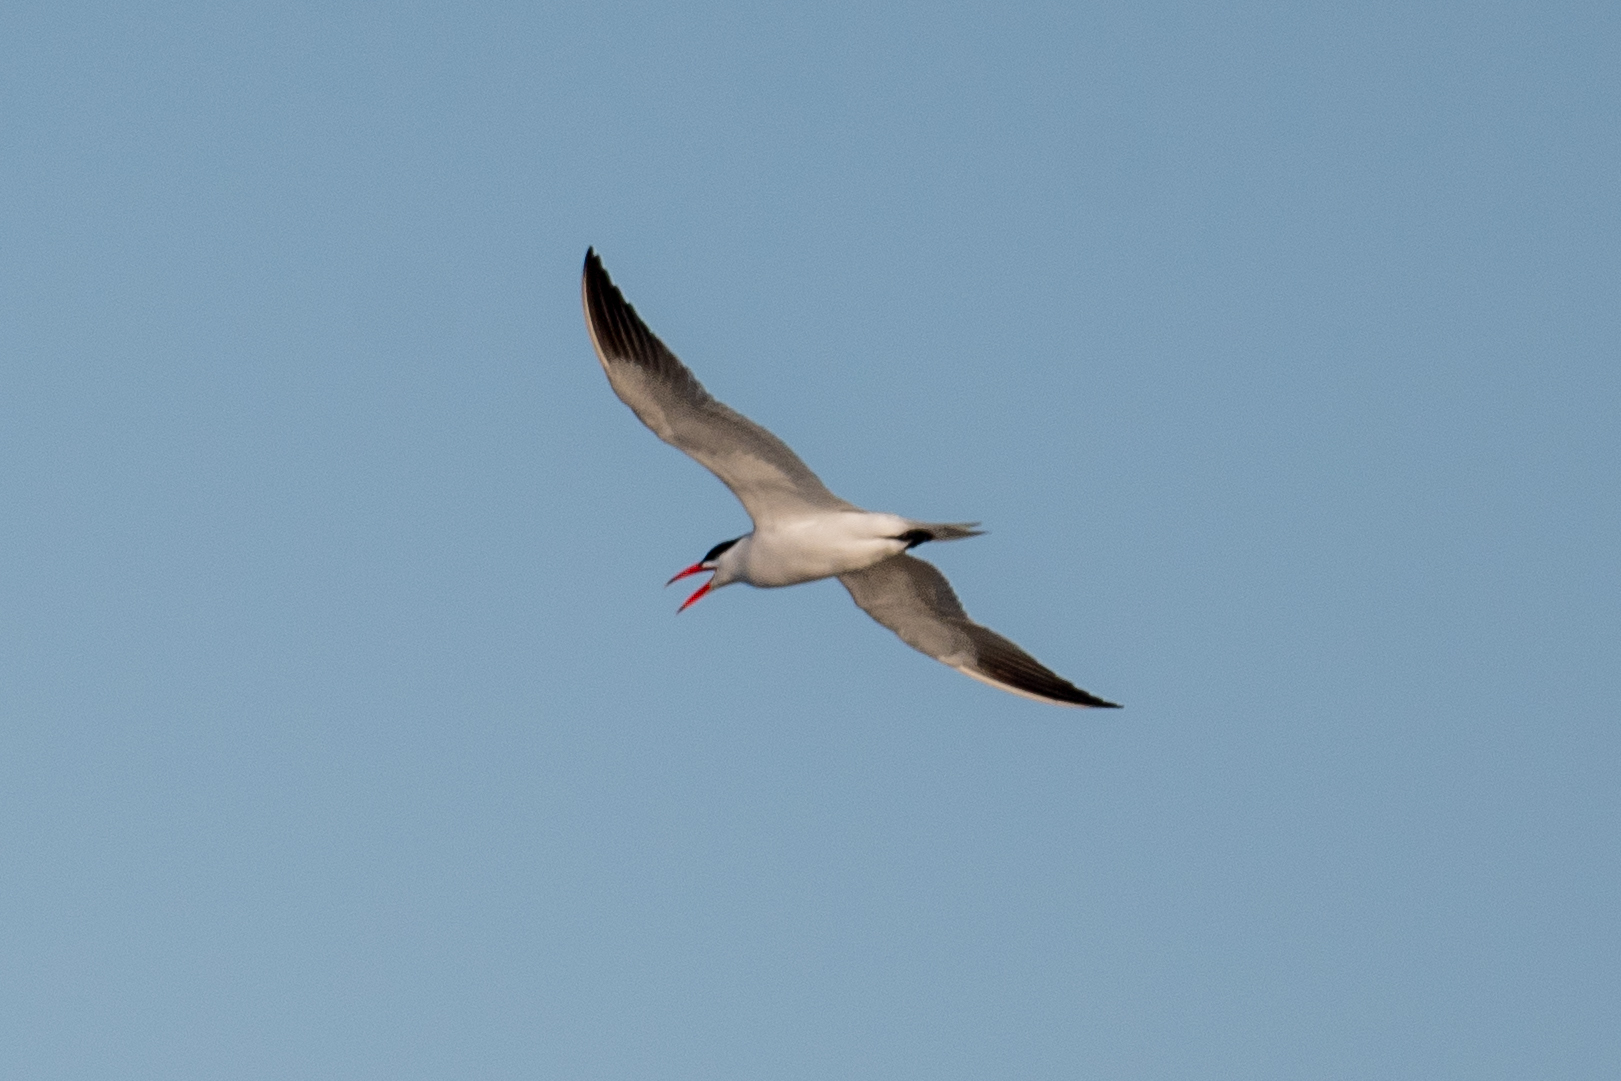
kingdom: Animalia
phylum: Chordata
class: Aves
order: Charadriiformes
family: Laridae
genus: Hydroprogne
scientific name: Hydroprogne caspia
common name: Caspian tern
